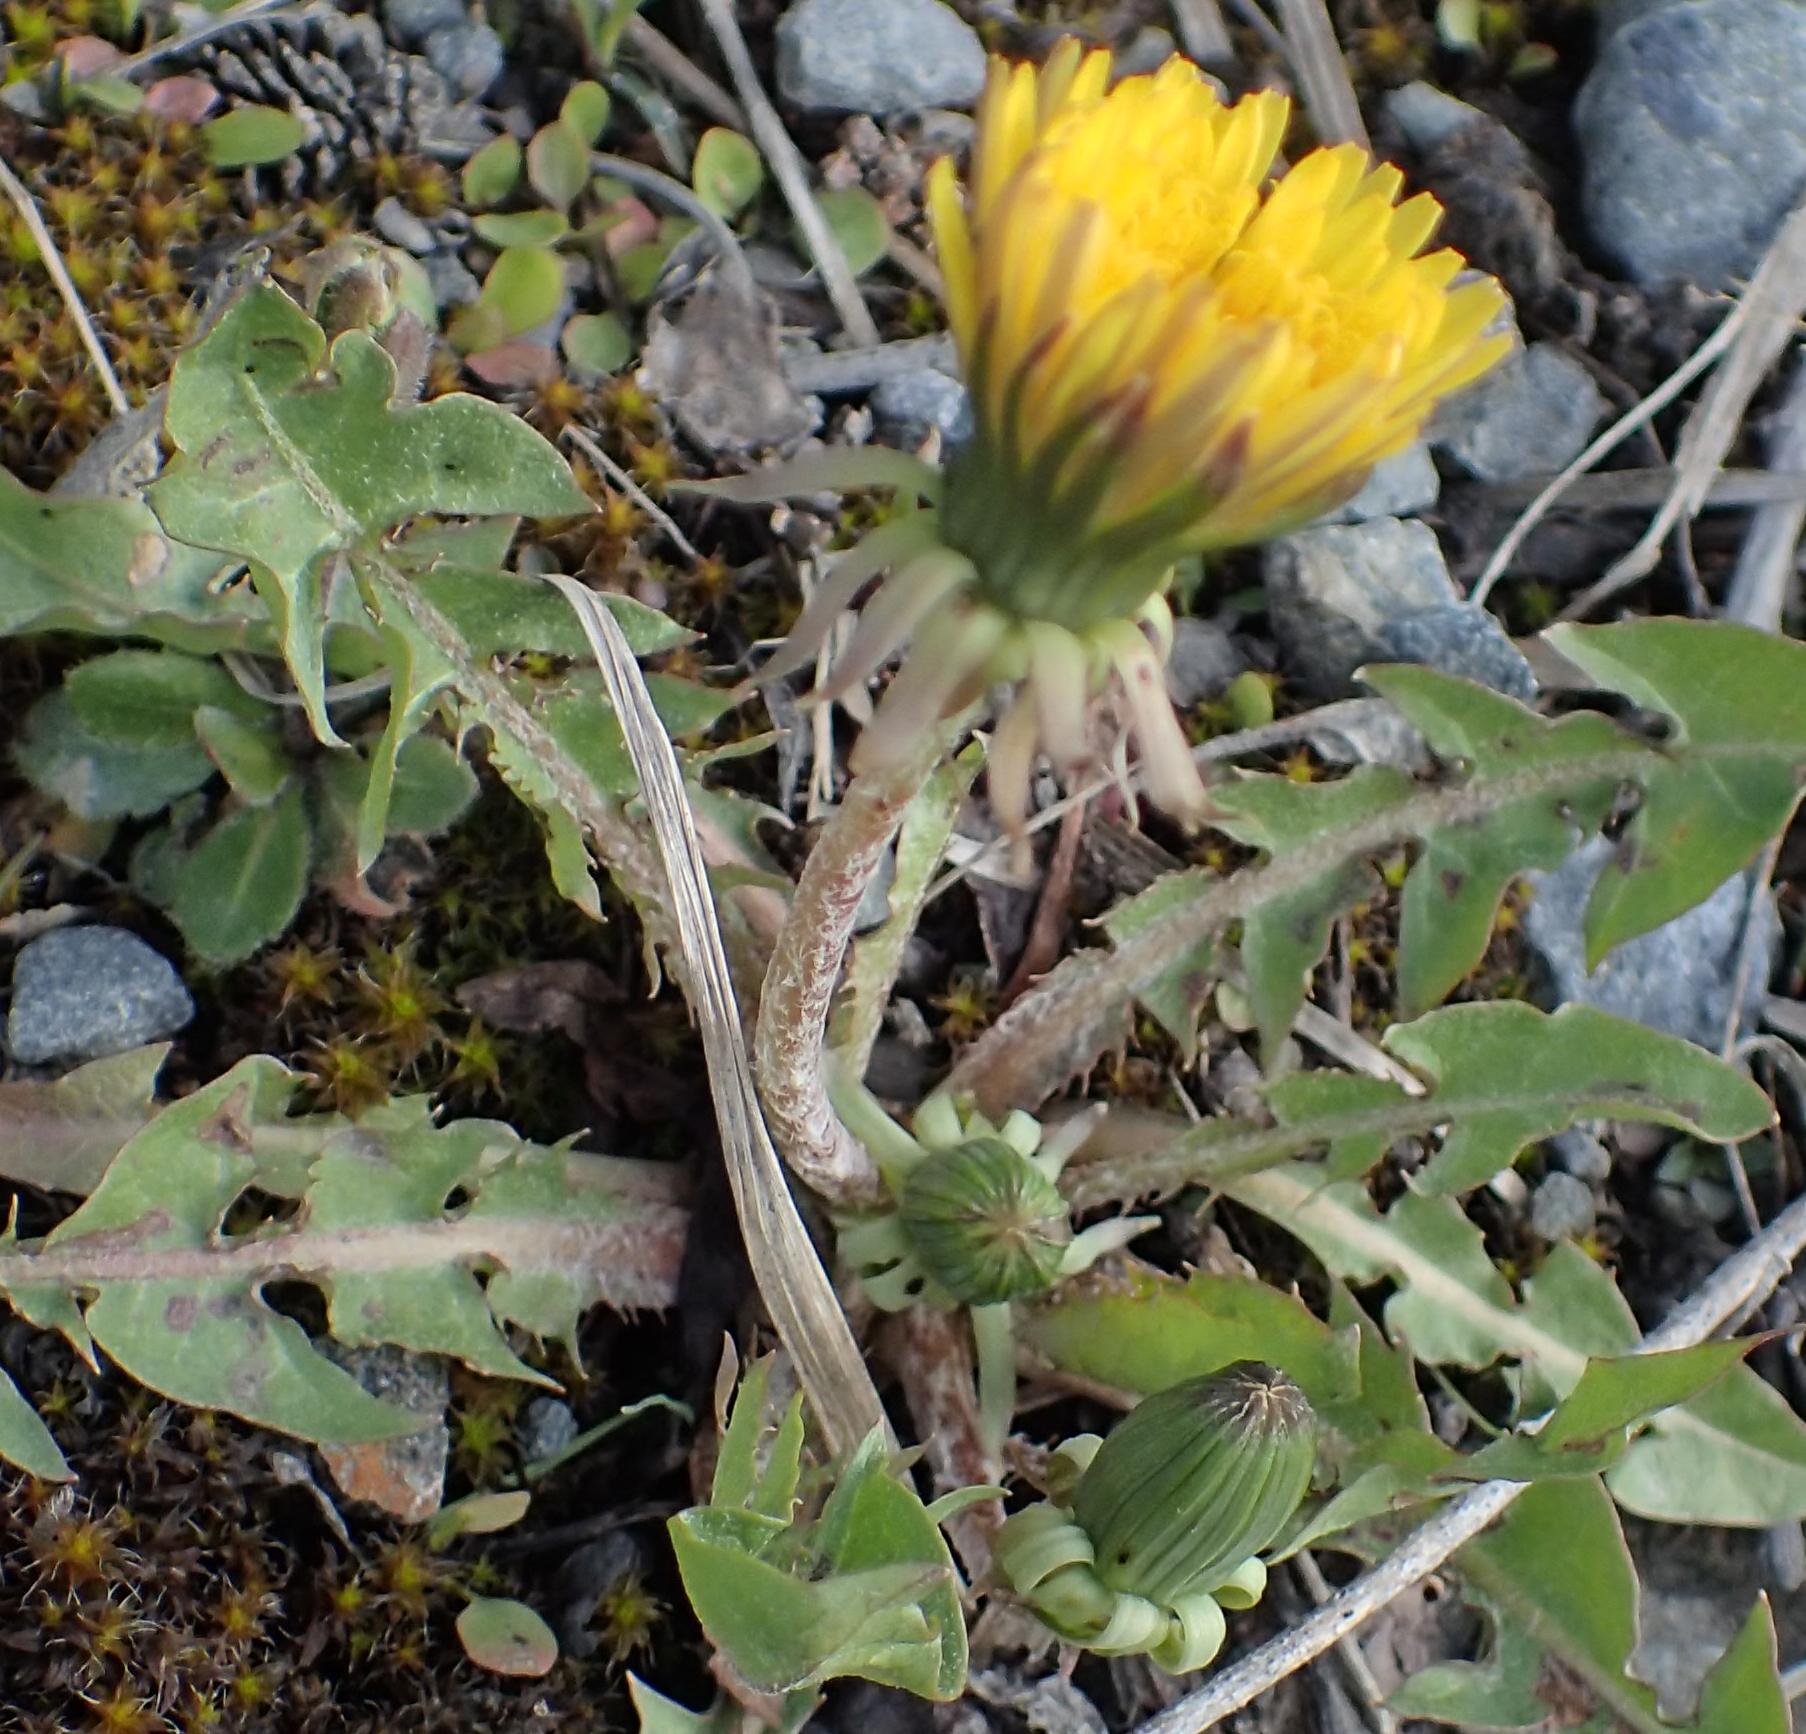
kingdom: Plantae
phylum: Tracheophyta
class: Magnoliopsida
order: Asterales
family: Asteraceae
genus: Taraxacum
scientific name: Taraxacum officinale
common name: Common dandelion
